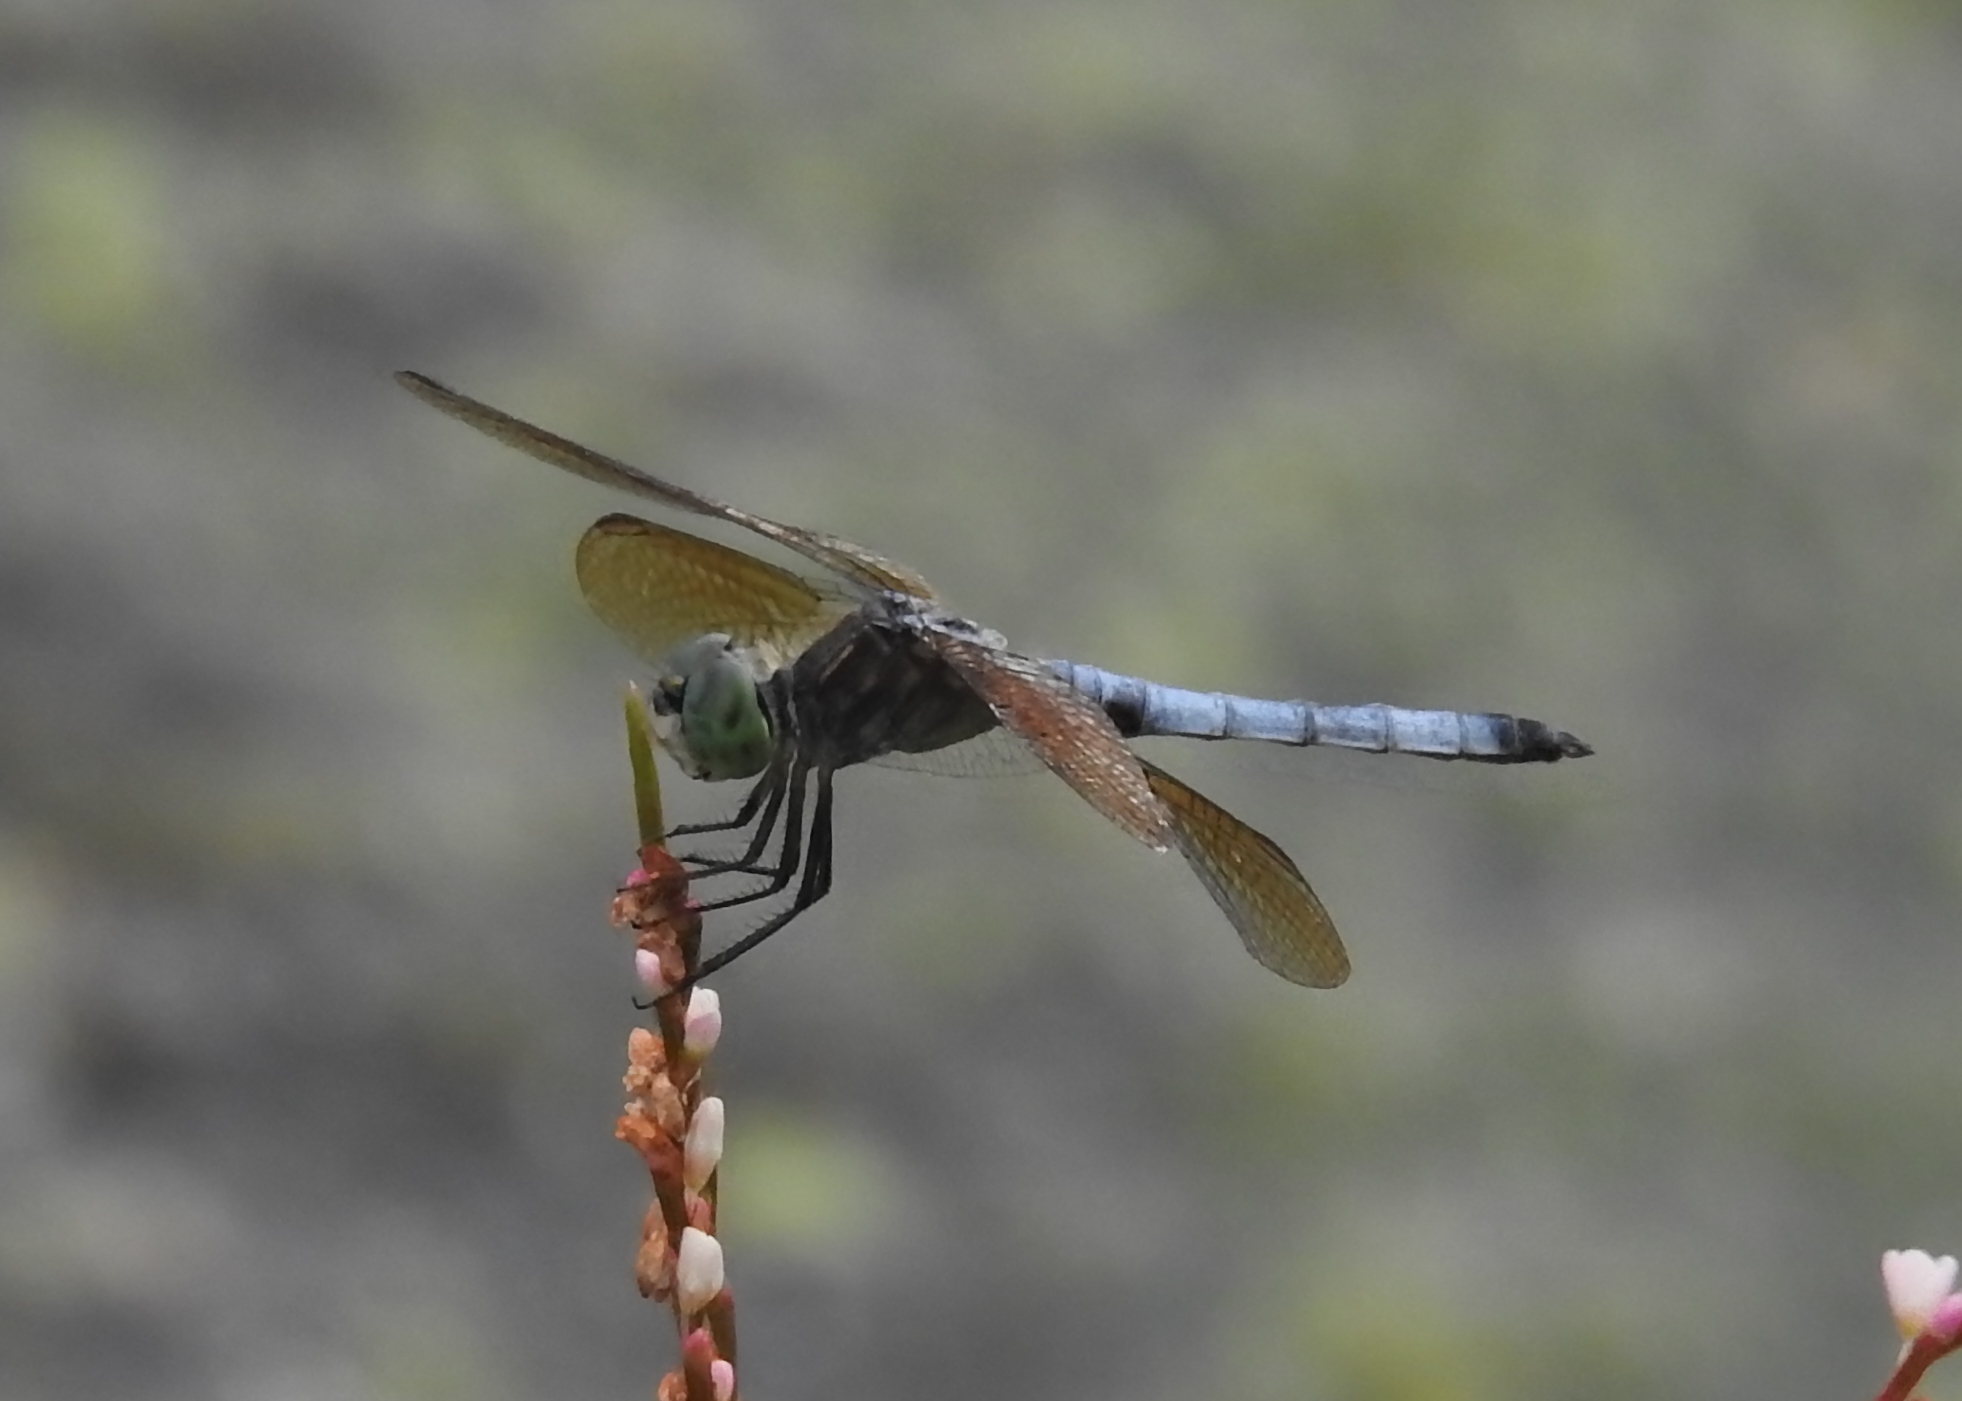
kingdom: Animalia
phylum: Arthropoda
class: Insecta
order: Odonata
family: Libellulidae
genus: Pachydiplax
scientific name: Pachydiplax longipennis
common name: Blue dasher
